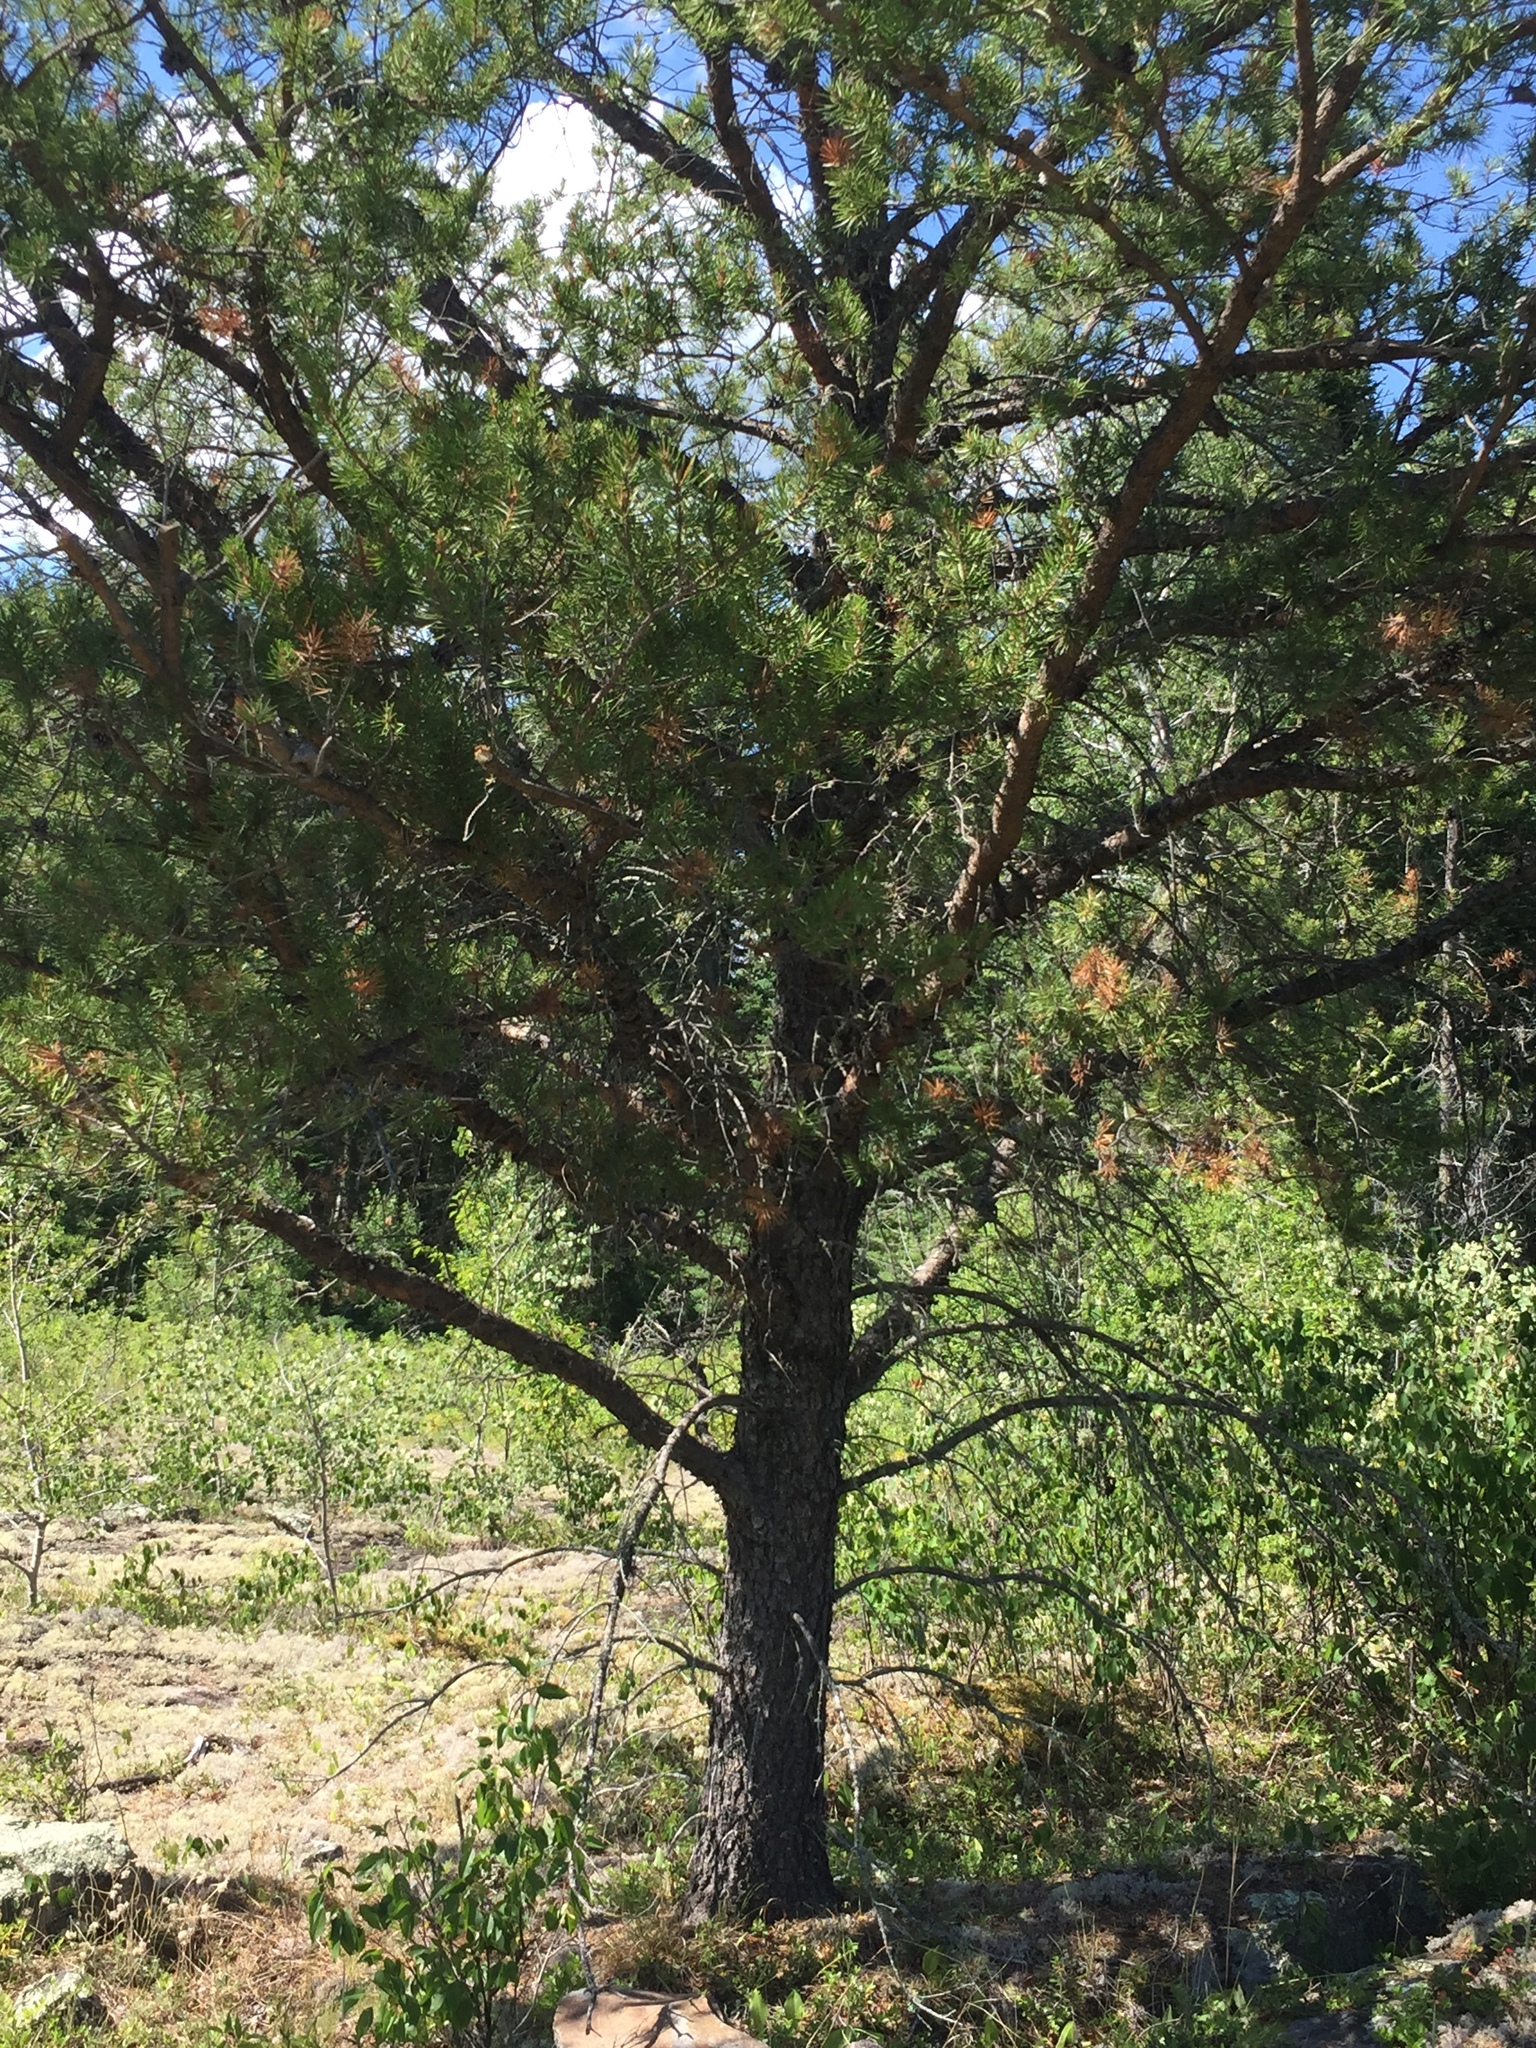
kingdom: Plantae
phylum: Tracheophyta
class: Pinopsida
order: Pinales
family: Pinaceae
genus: Pinus
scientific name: Pinus banksiana
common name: Jack pine
